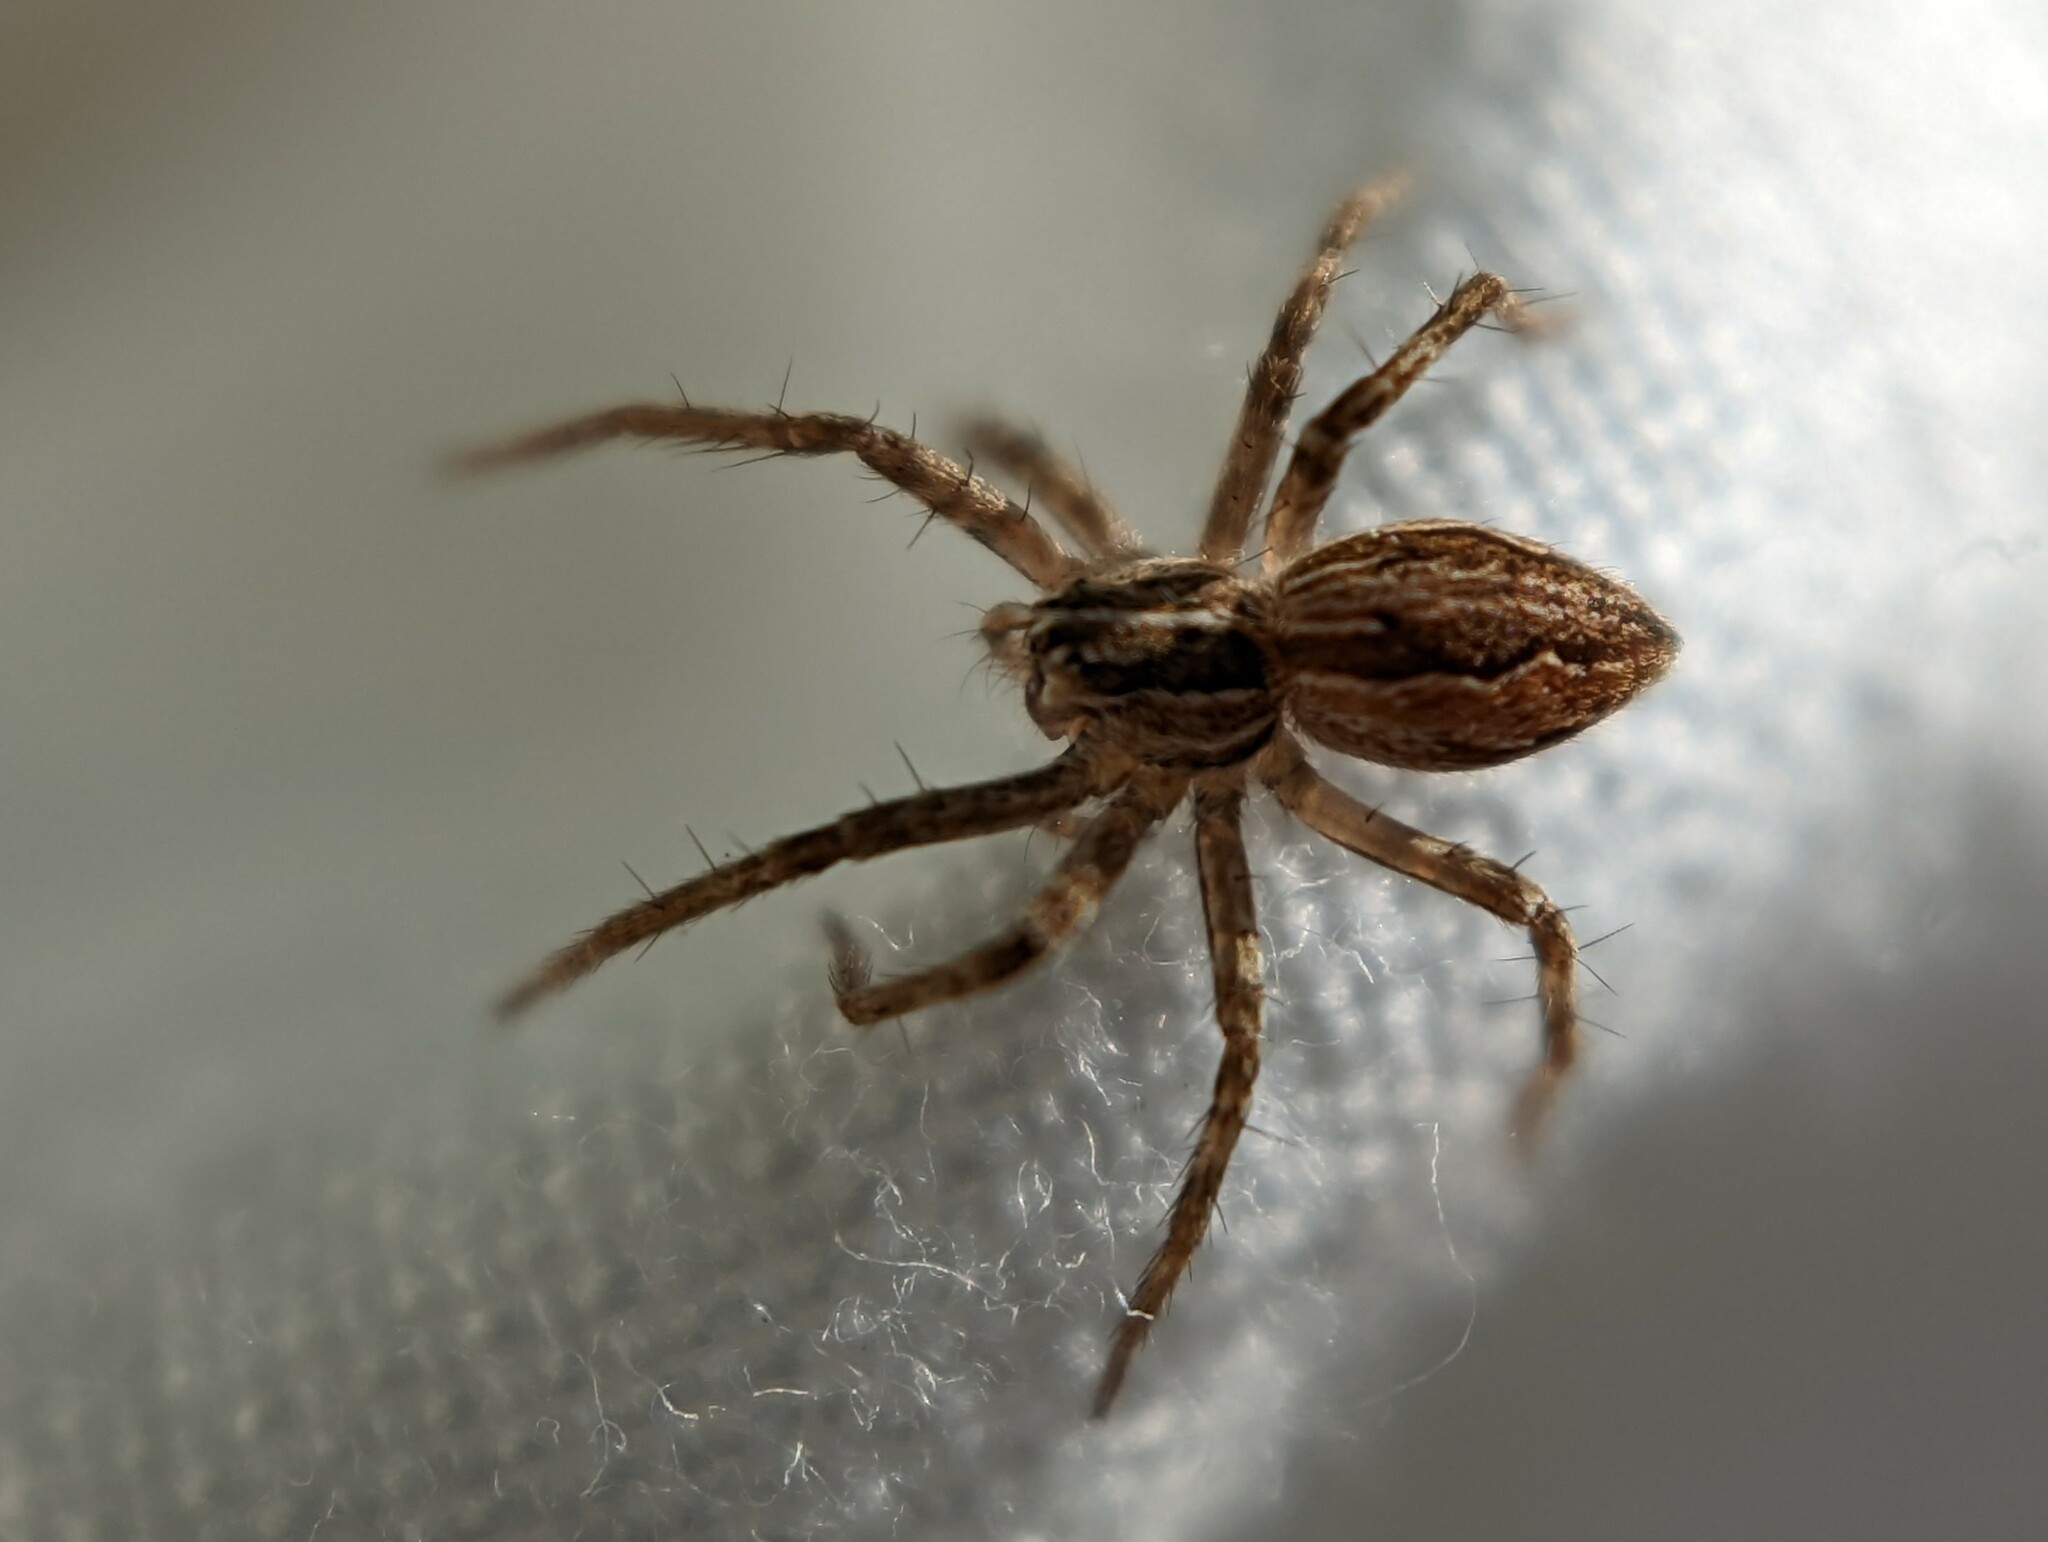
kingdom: Animalia
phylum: Arthropoda
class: Arachnida
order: Araneae
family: Pisauridae
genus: Pisaura
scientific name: Pisaura mirabilis
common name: Tent spider
